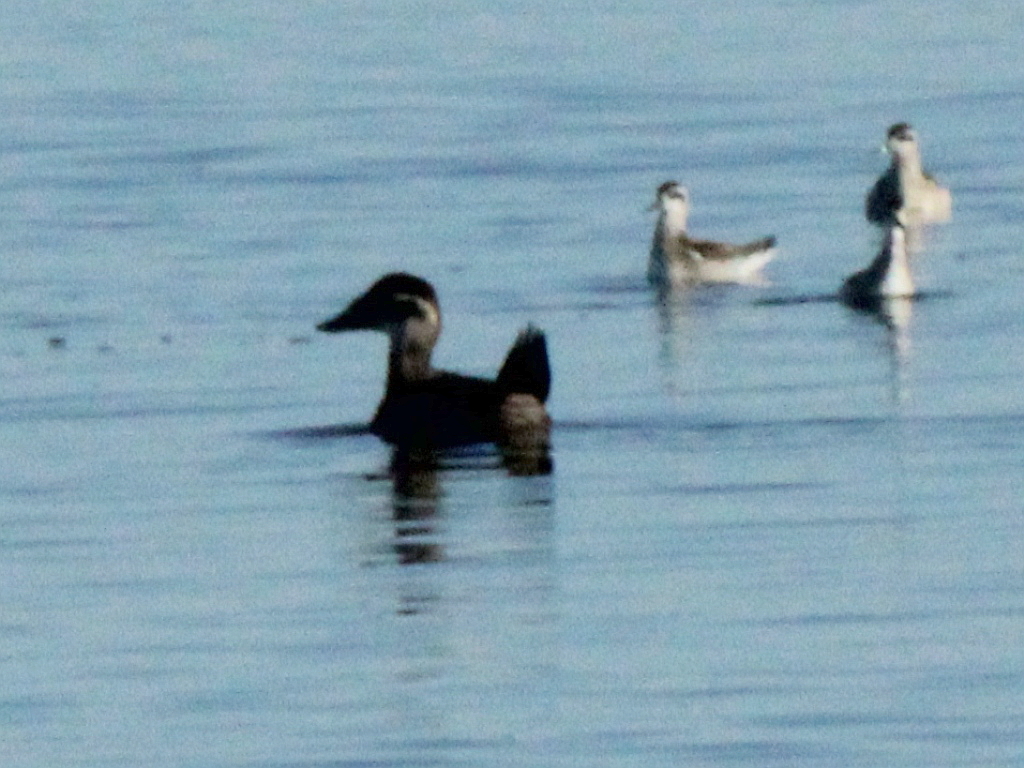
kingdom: Animalia
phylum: Chordata
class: Aves
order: Anseriformes
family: Anatidae
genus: Oxyura
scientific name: Oxyura leucocephala
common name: White-headed duck
